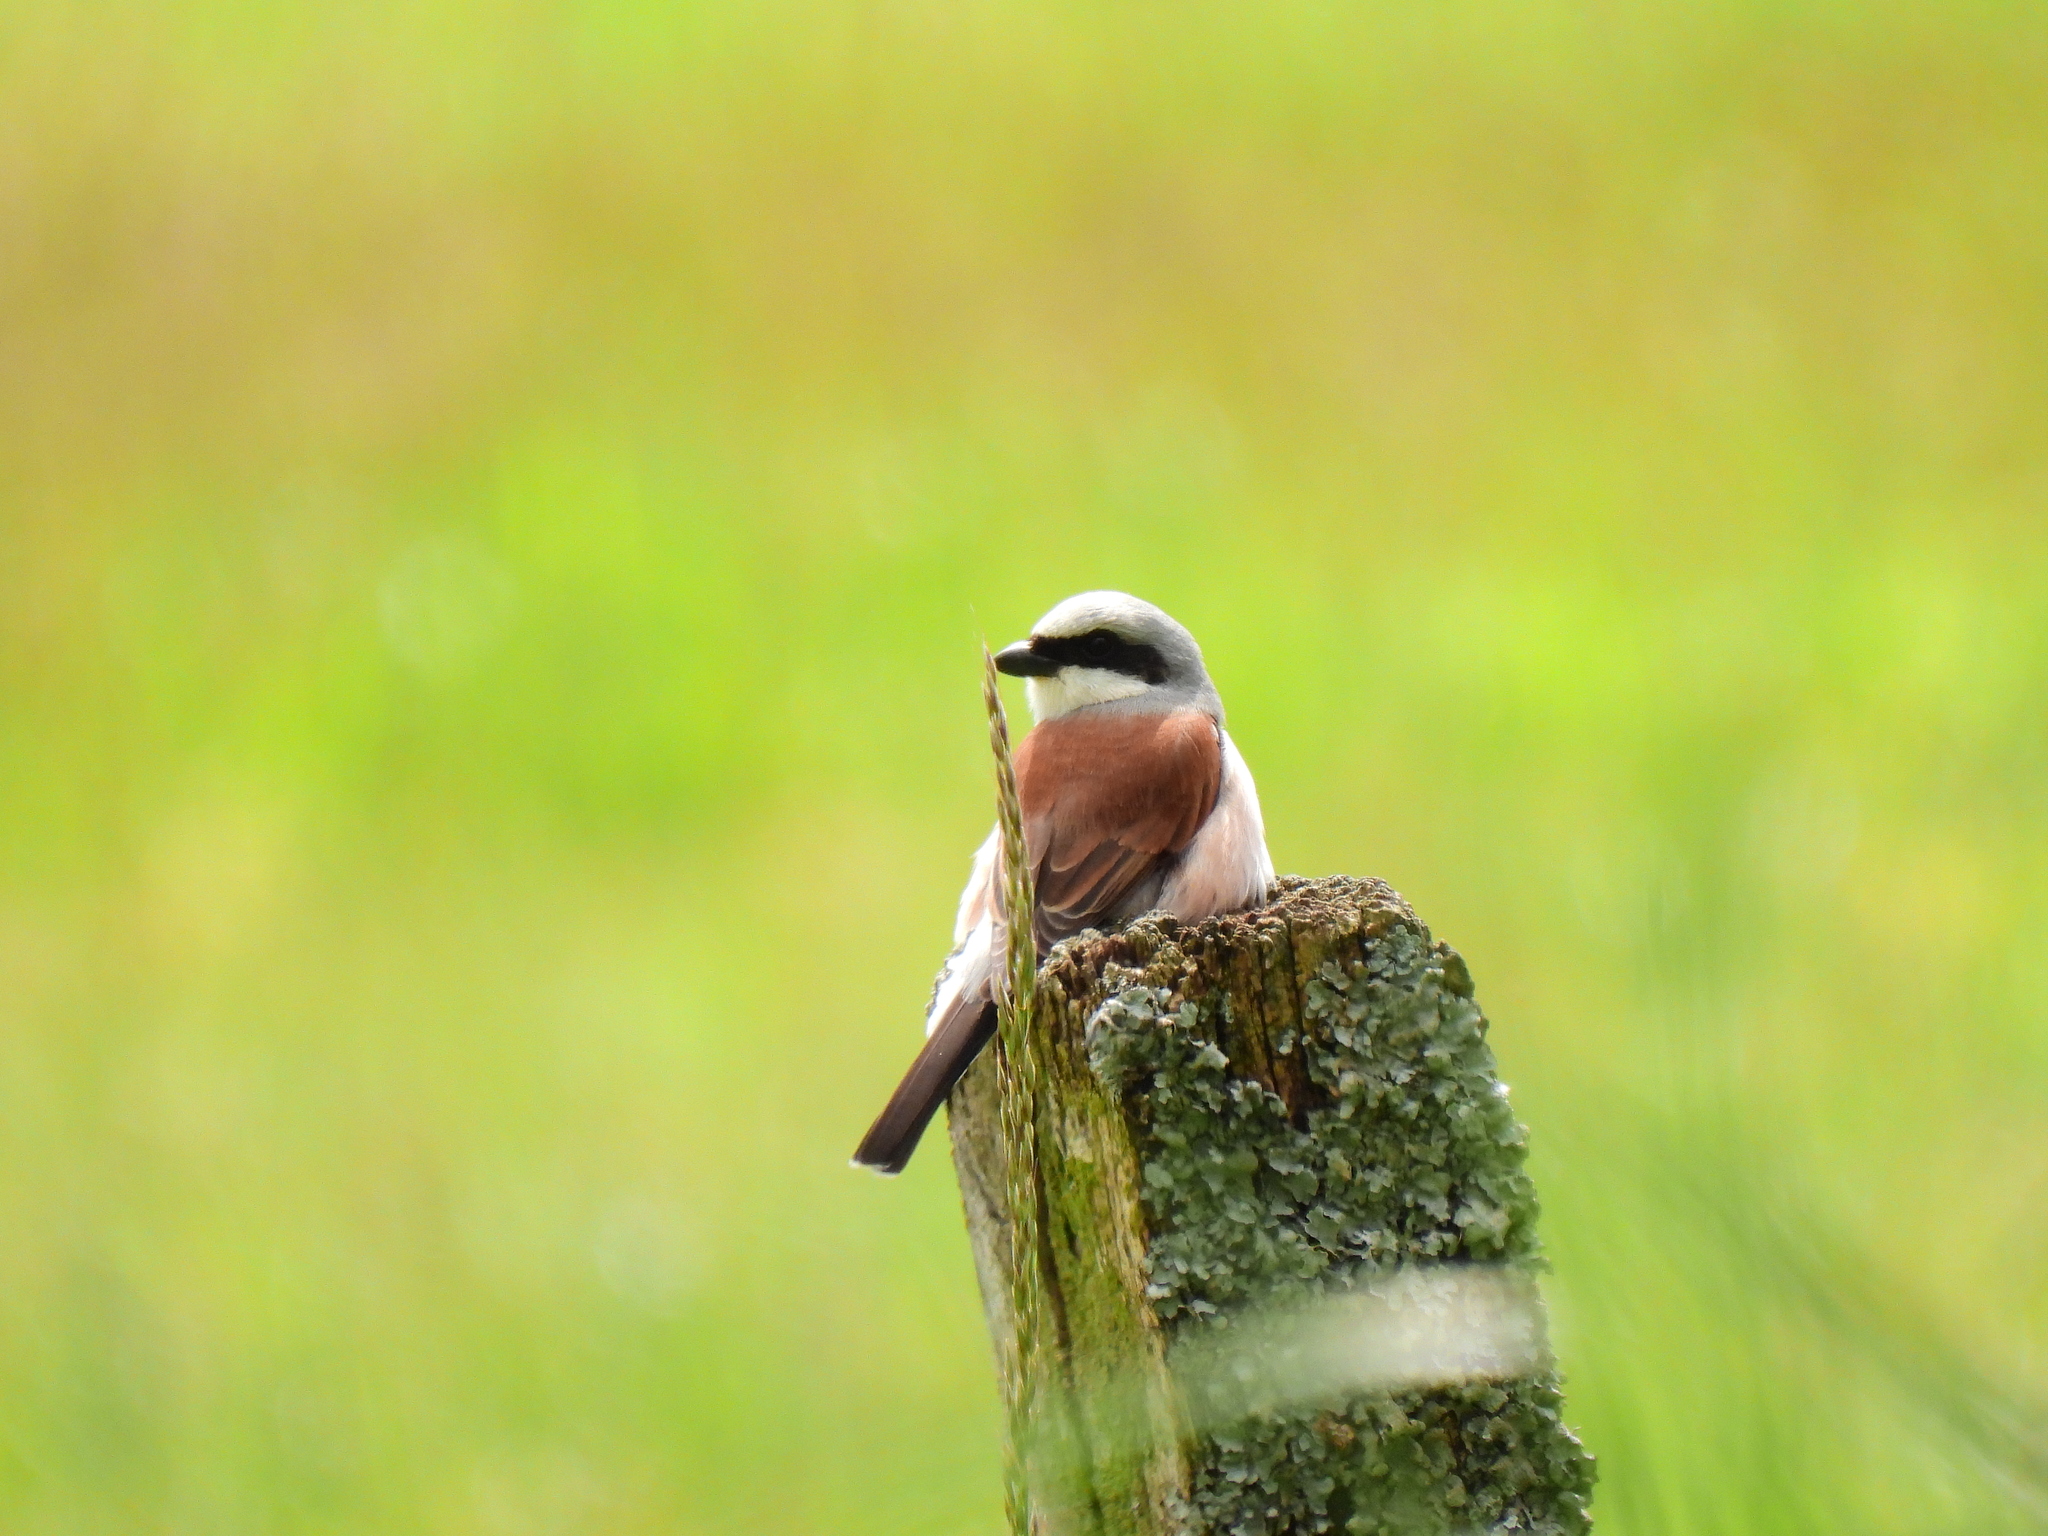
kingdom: Animalia
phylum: Chordata
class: Aves
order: Passeriformes
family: Laniidae
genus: Lanius
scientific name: Lanius collurio
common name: Red-backed shrike
